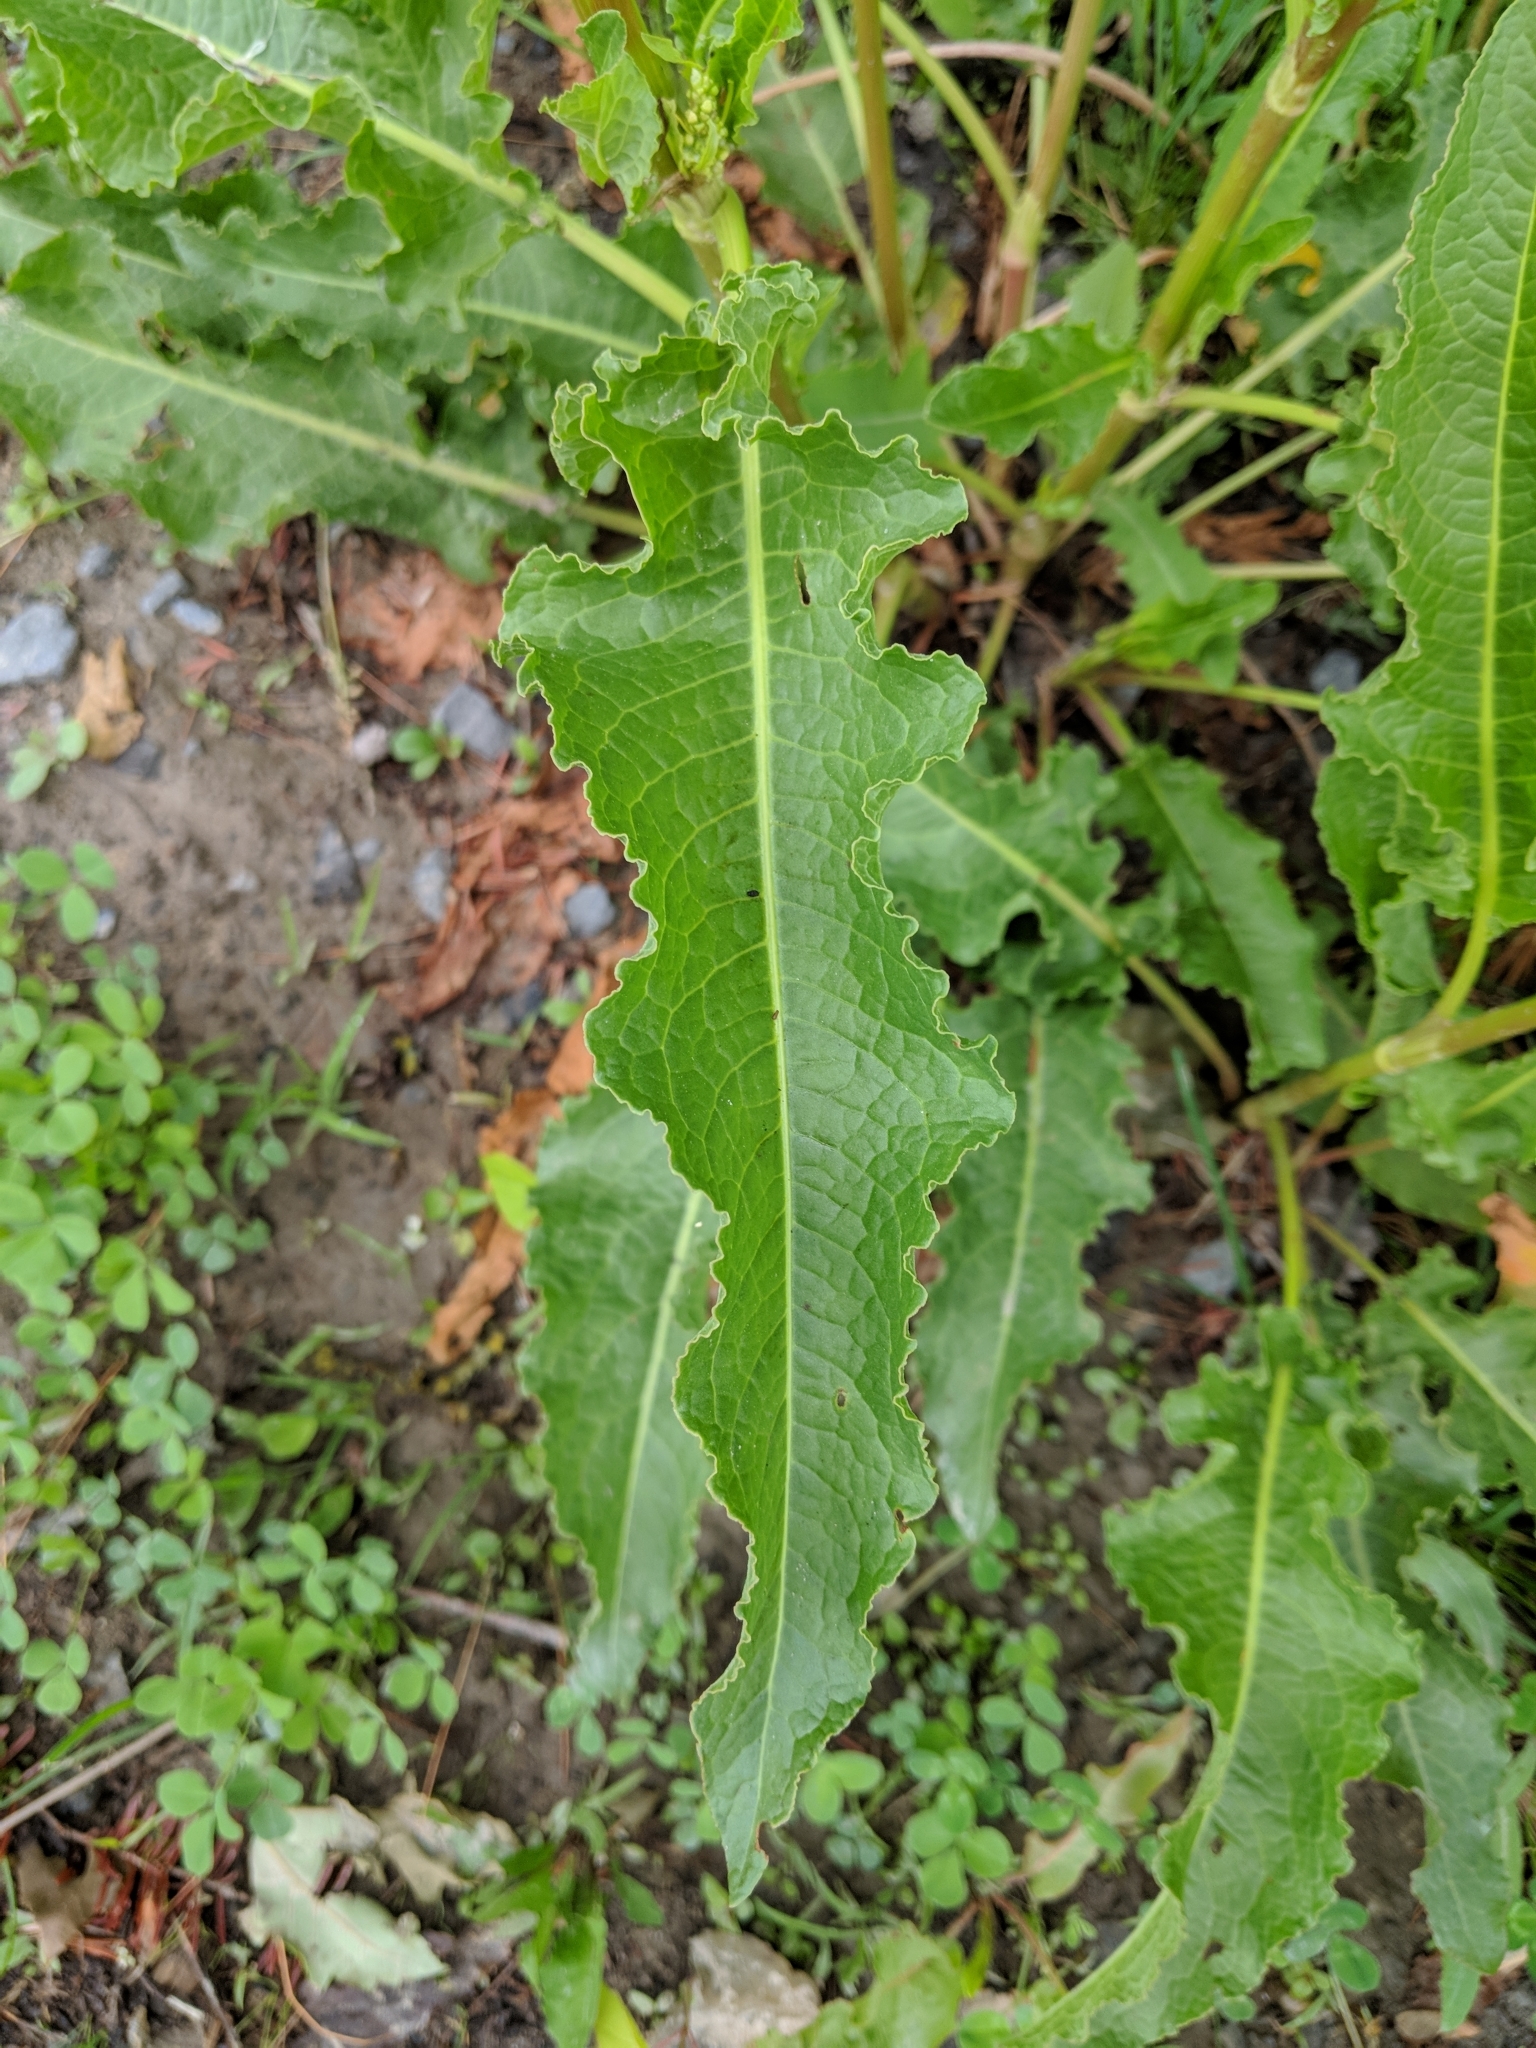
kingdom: Plantae
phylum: Tracheophyta
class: Magnoliopsida
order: Caryophyllales
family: Polygonaceae
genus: Rumex
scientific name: Rumex crispus
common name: Curled dock
